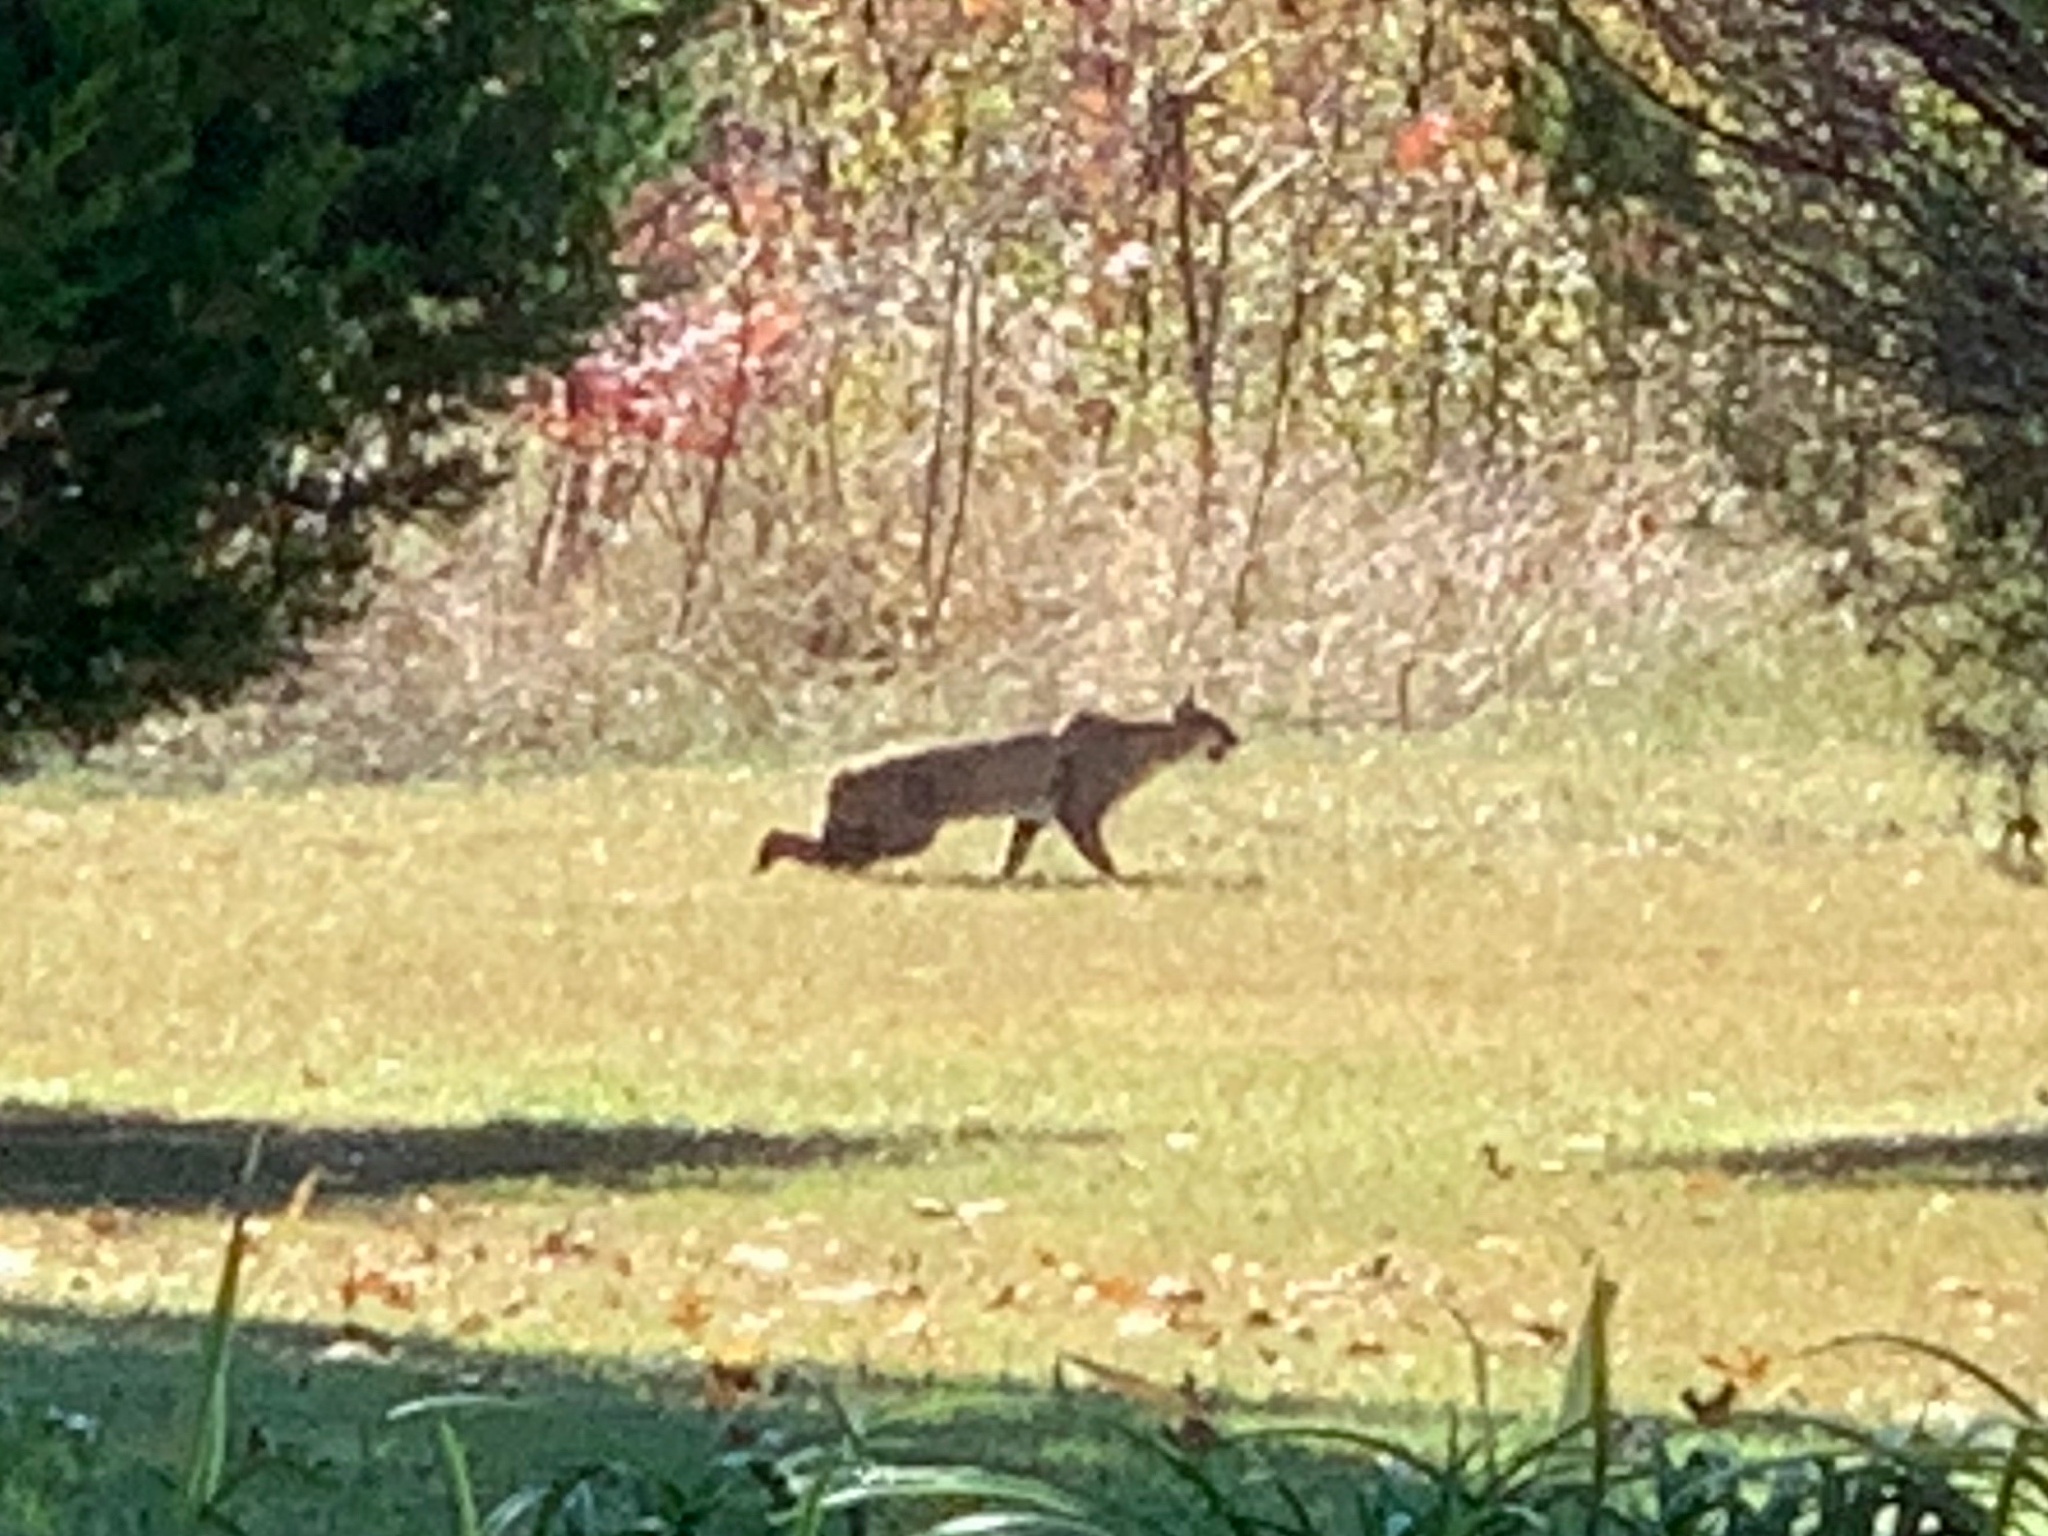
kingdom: Animalia
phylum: Chordata
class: Mammalia
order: Carnivora
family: Felidae
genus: Lynx
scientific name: Lynx rufus
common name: Bobcat
